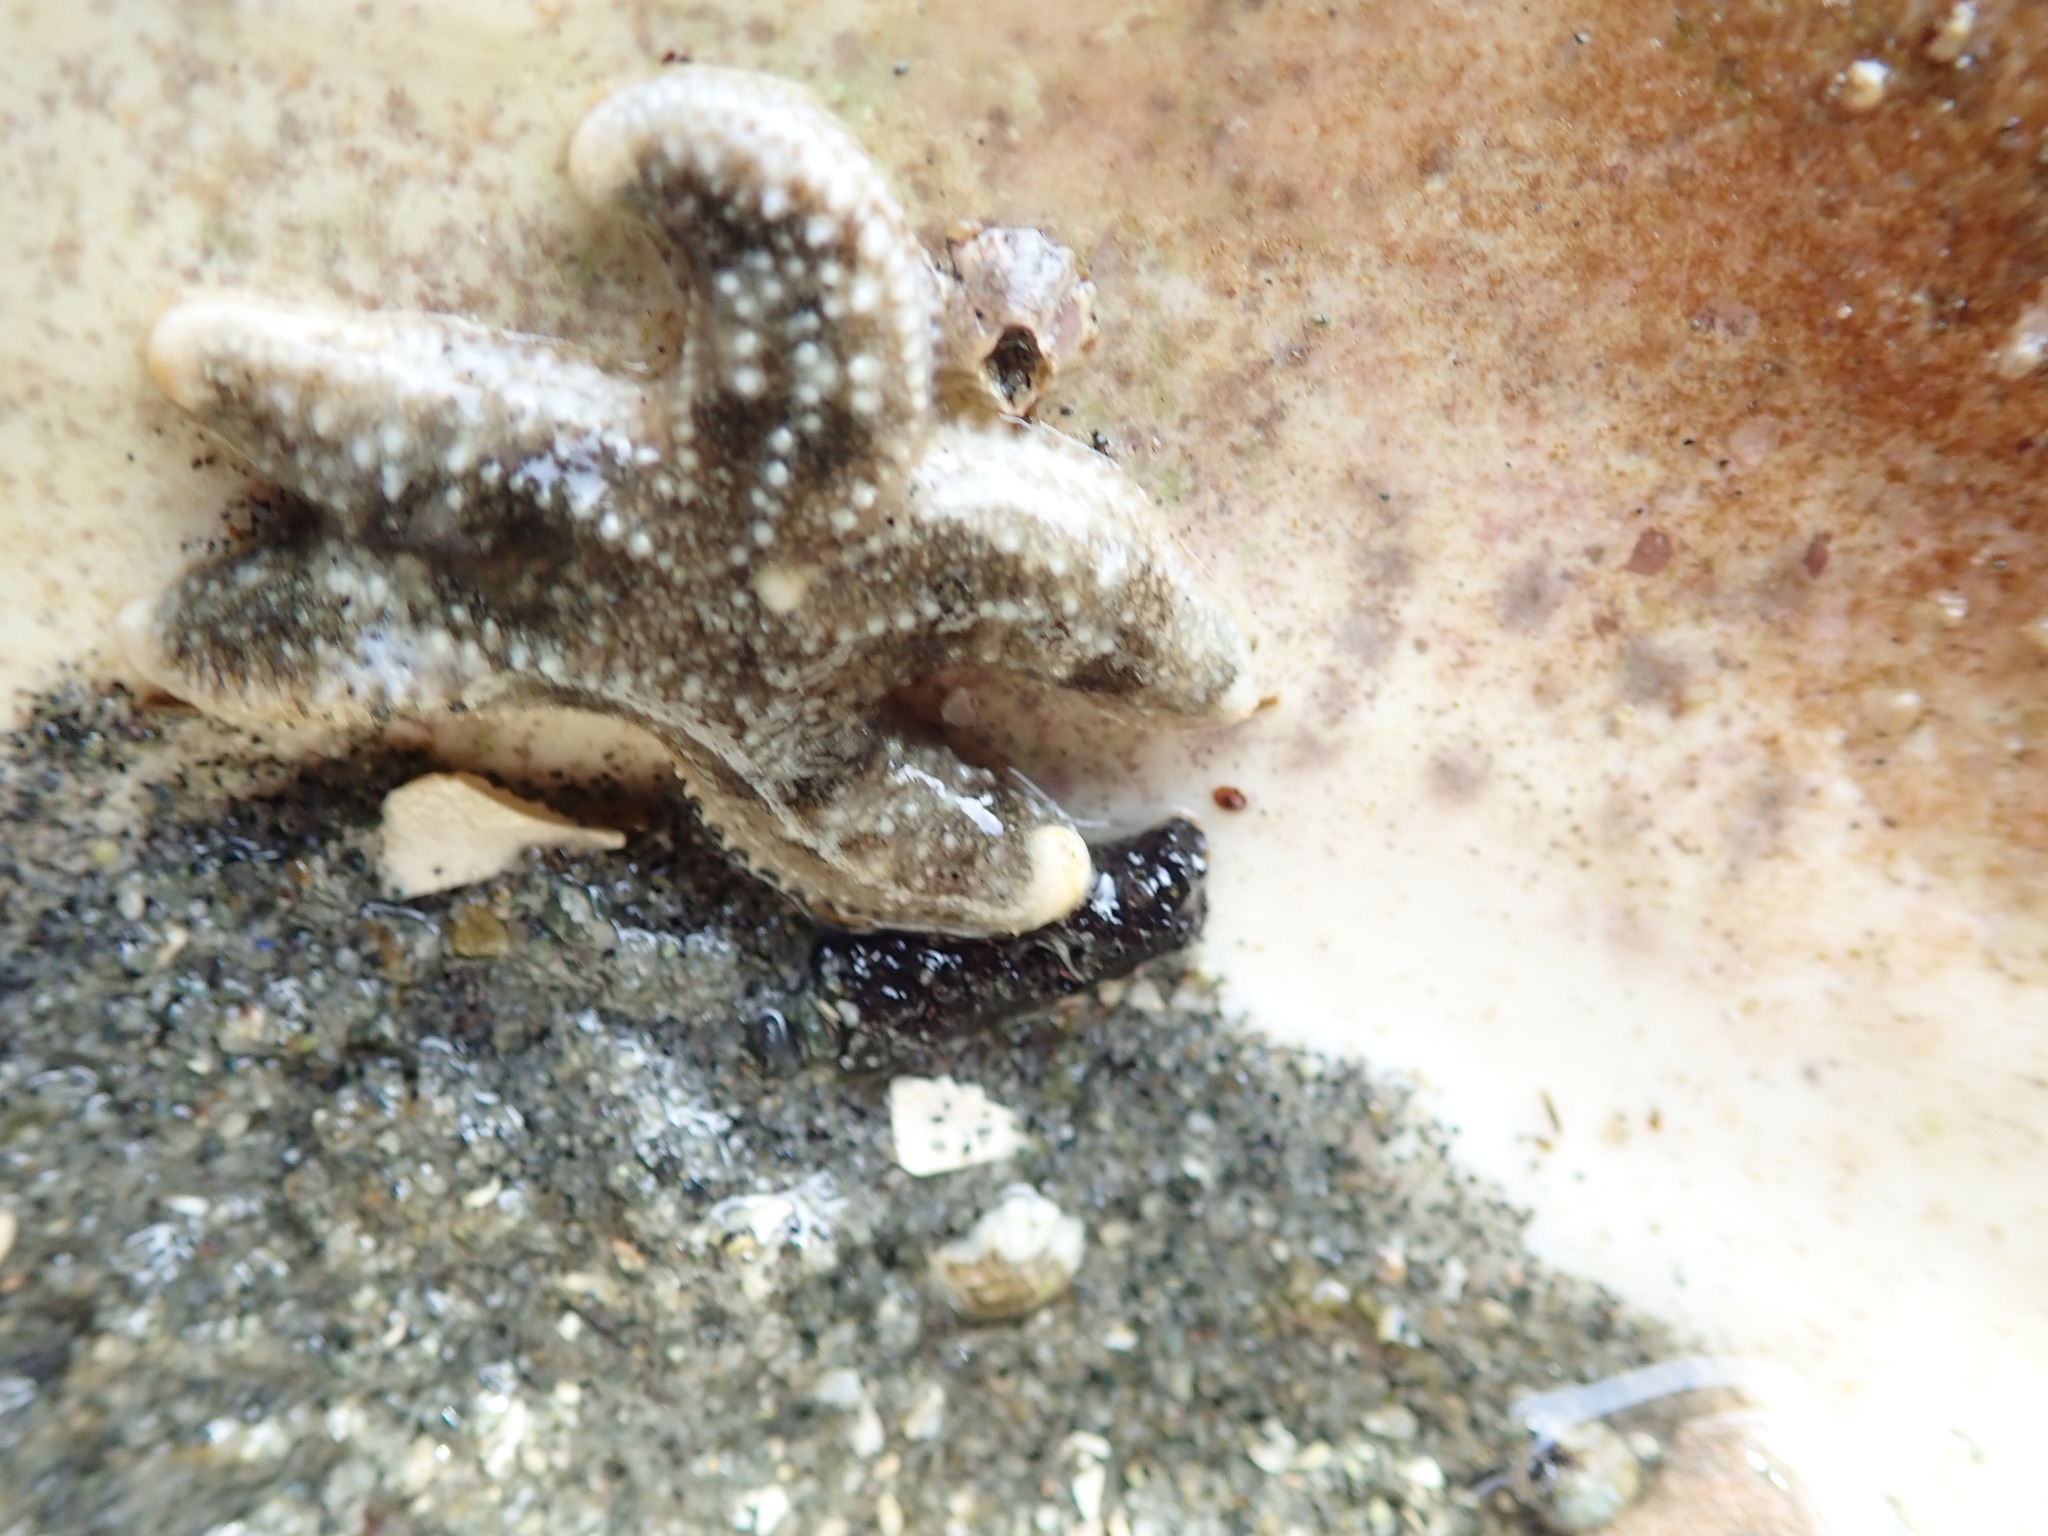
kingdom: Animalia
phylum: Echinodermata
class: Asteroidea
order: Forcipulatida
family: Asteriidae
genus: Evasterias
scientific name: Evasterias troschelii
